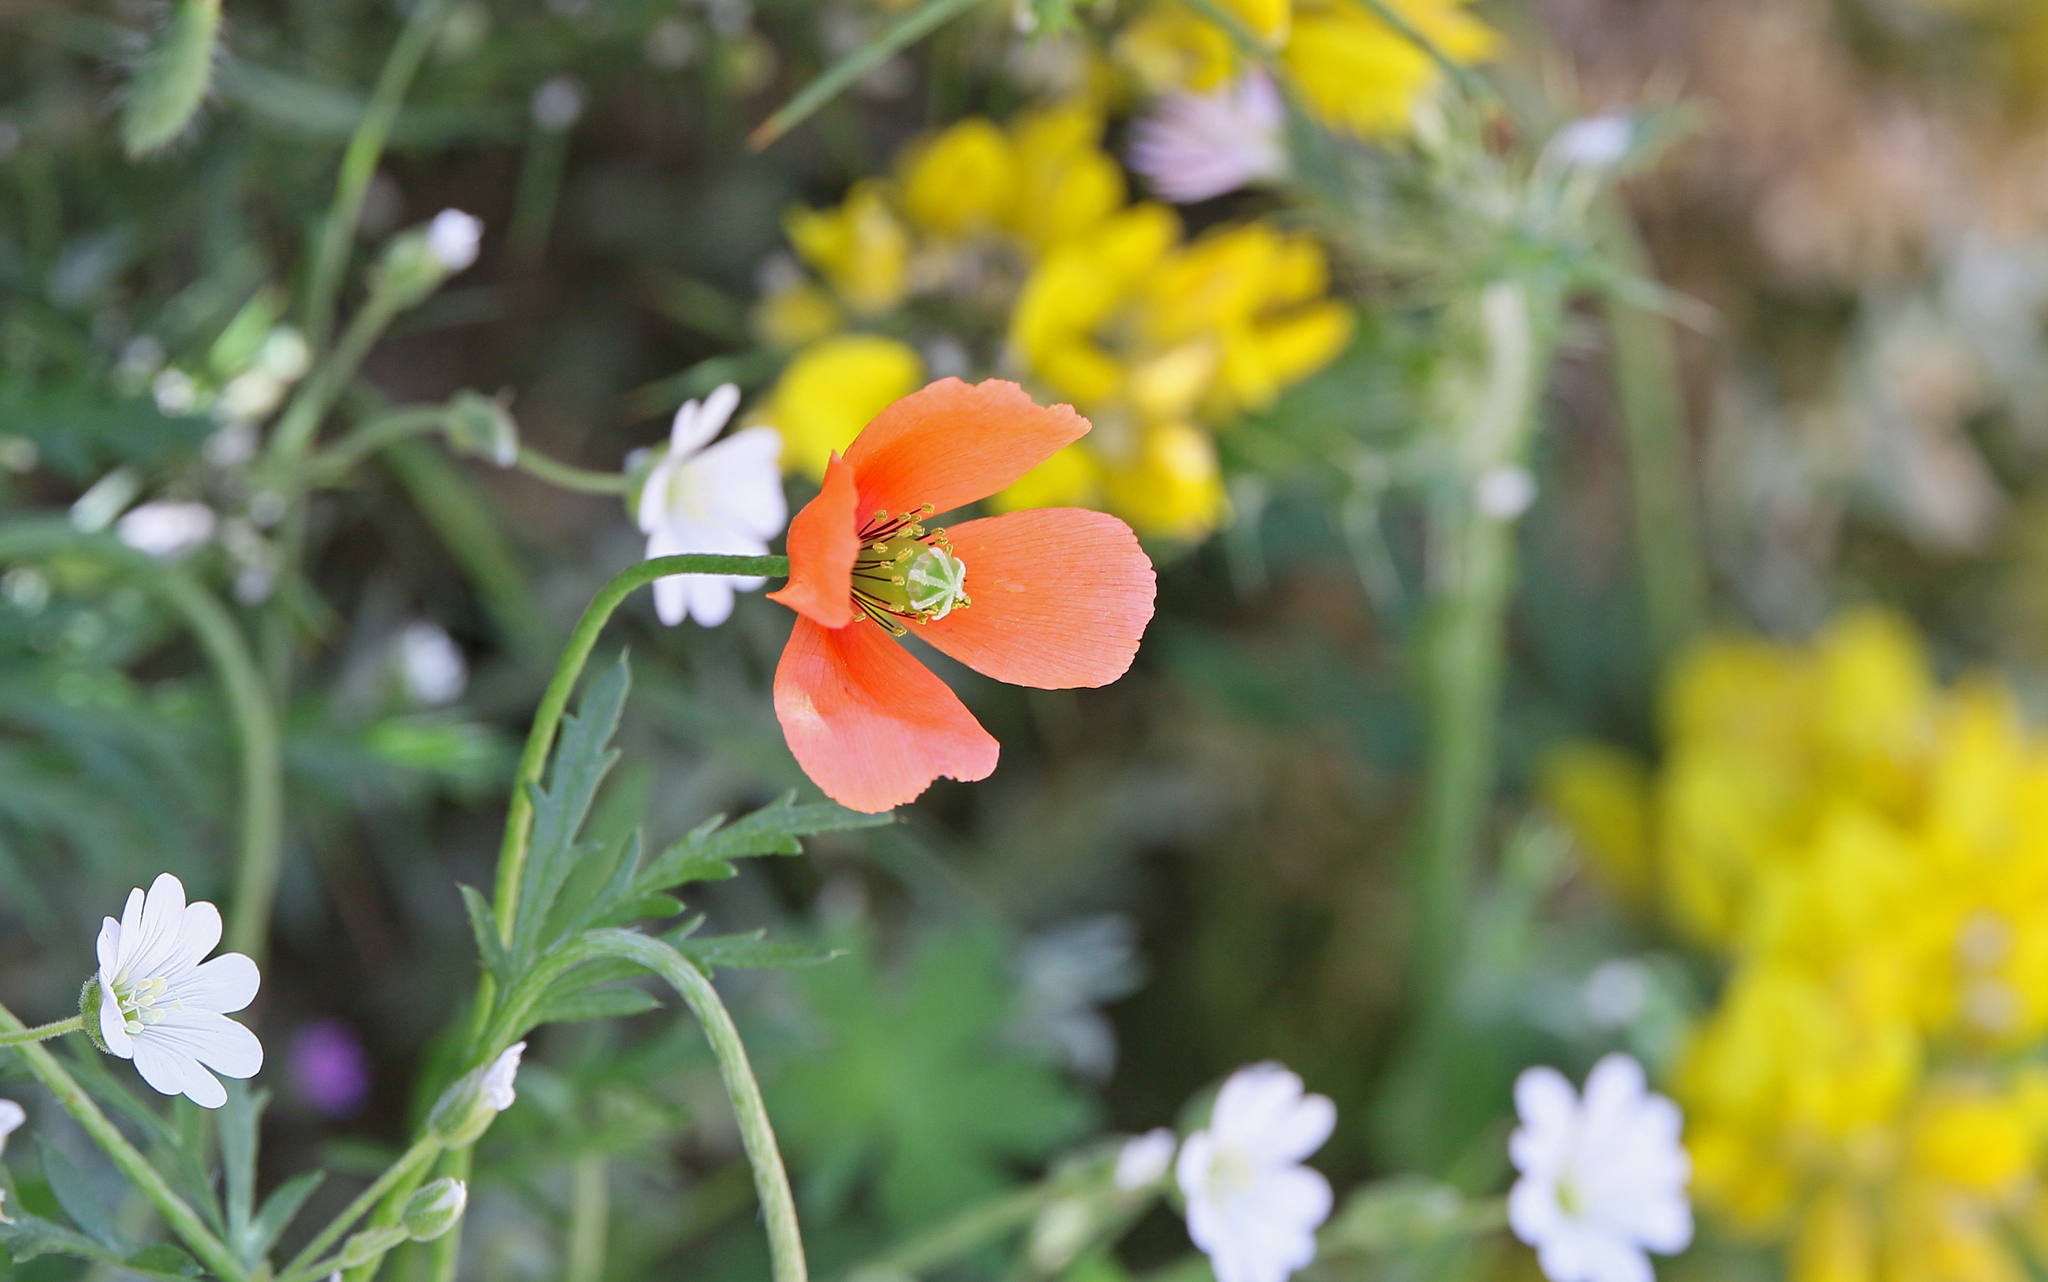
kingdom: Plantae
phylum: Tracheophyta
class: Magnoliopsida
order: Ranunculales
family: Papaveraceae
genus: Papaver
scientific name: Papaver dubium
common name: Long-headed poppy
